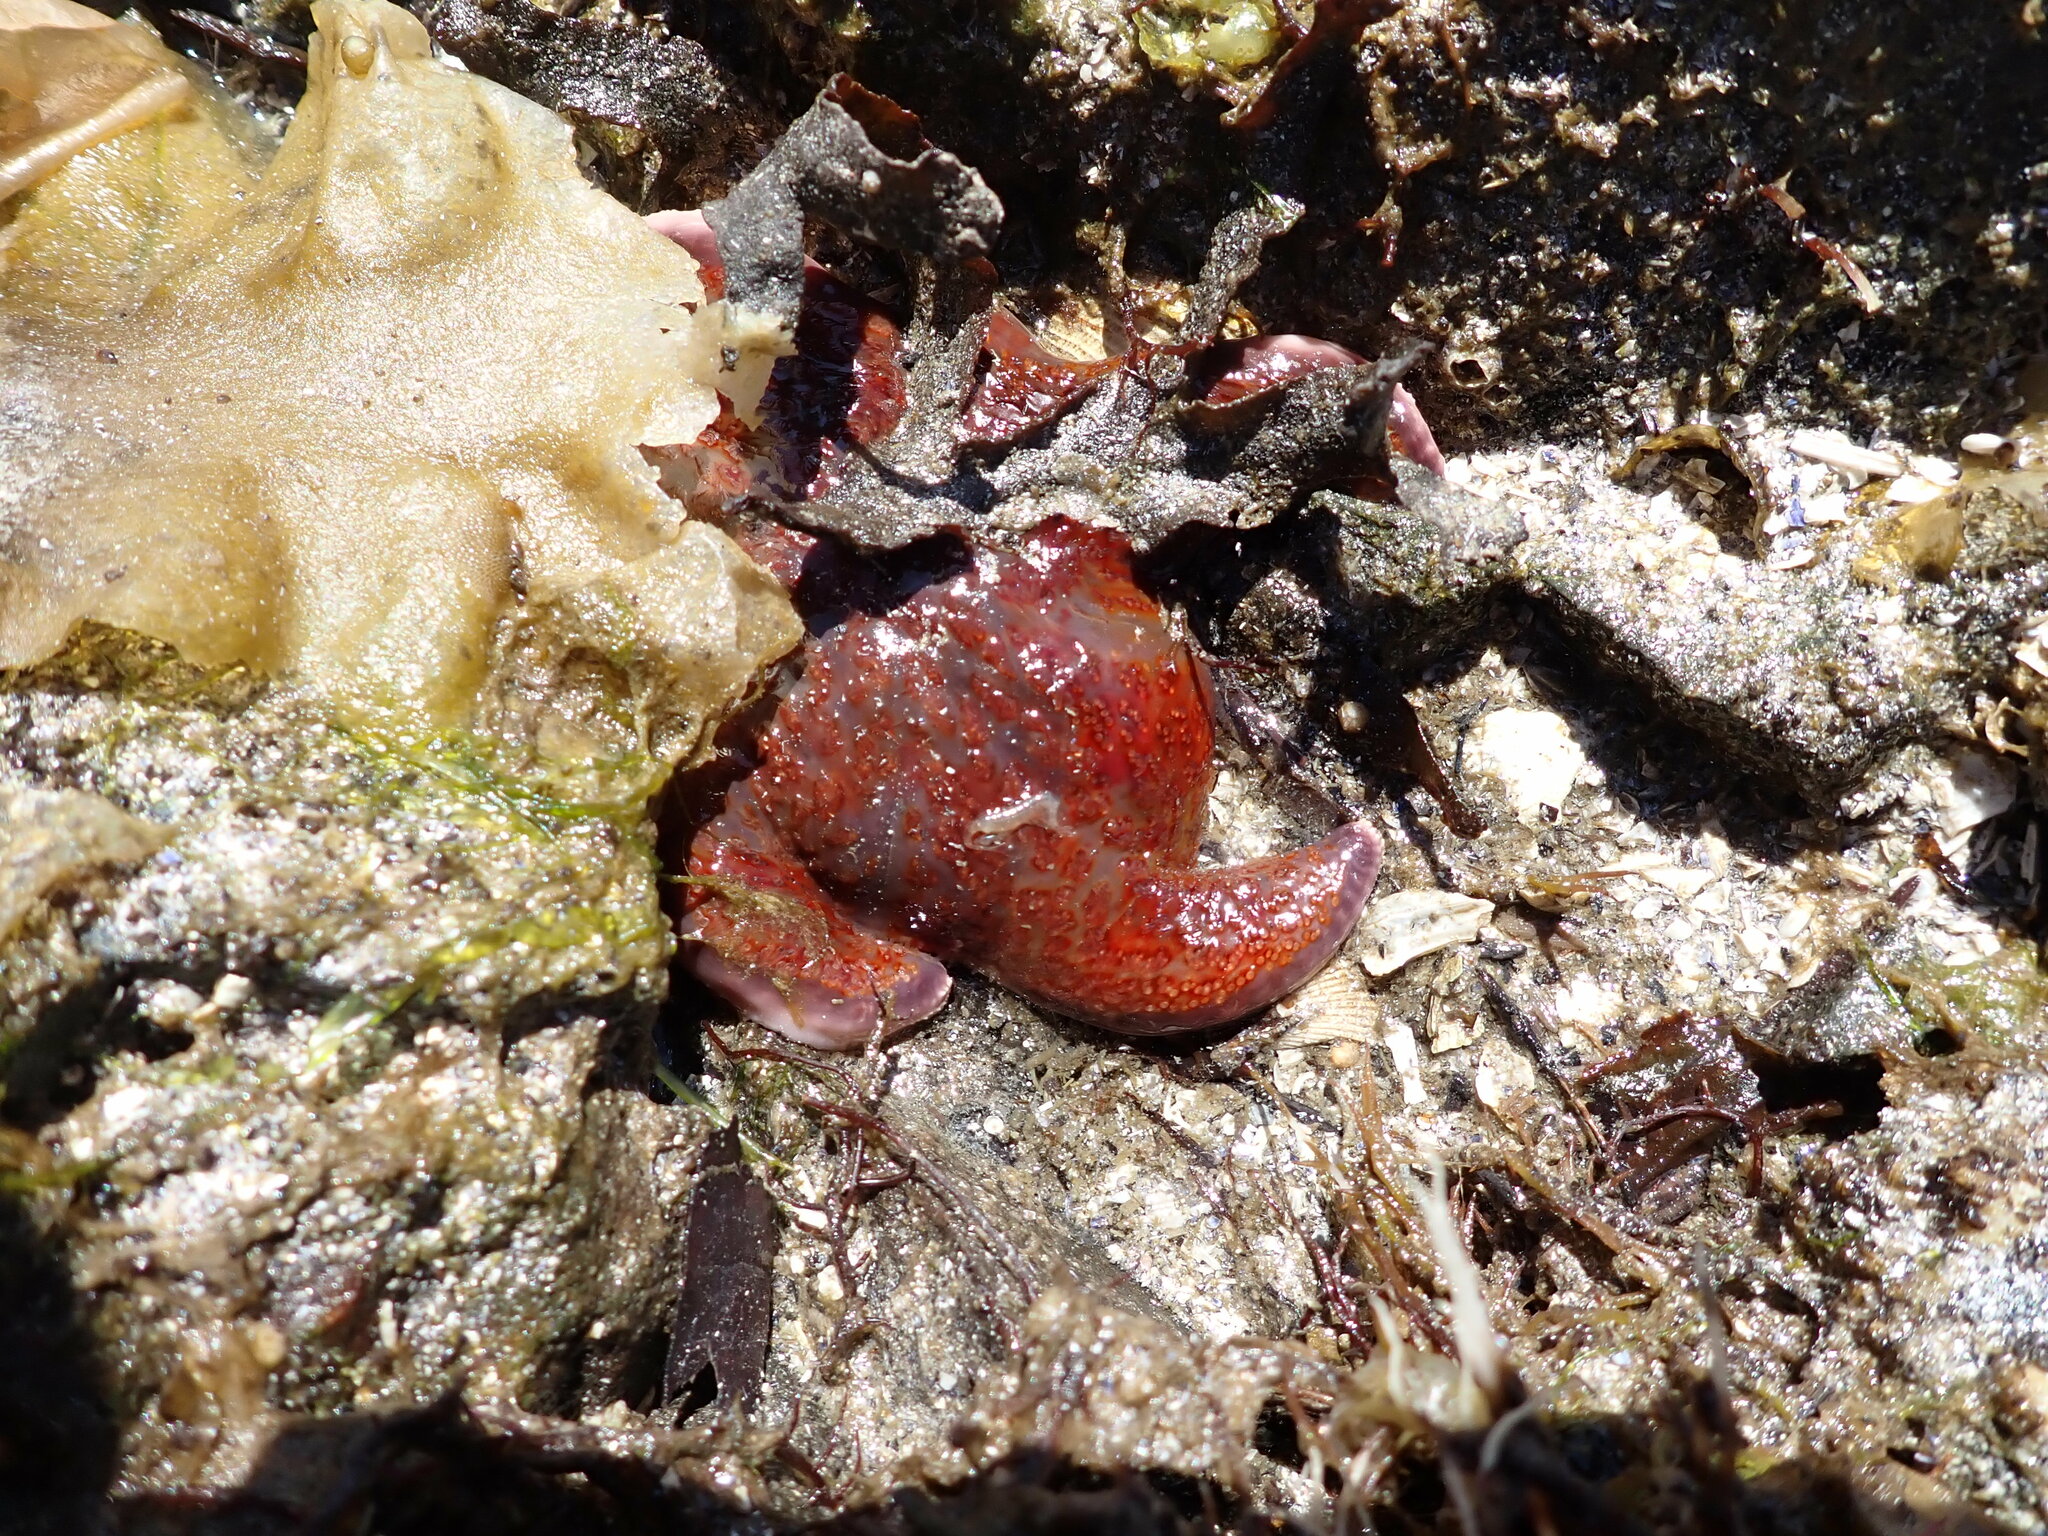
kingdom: Animalia
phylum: Echinodermata
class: Asteroidea
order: Valvatida
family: Asteropseidae
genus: Dermasterias
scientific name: Dermasterias imbricata
